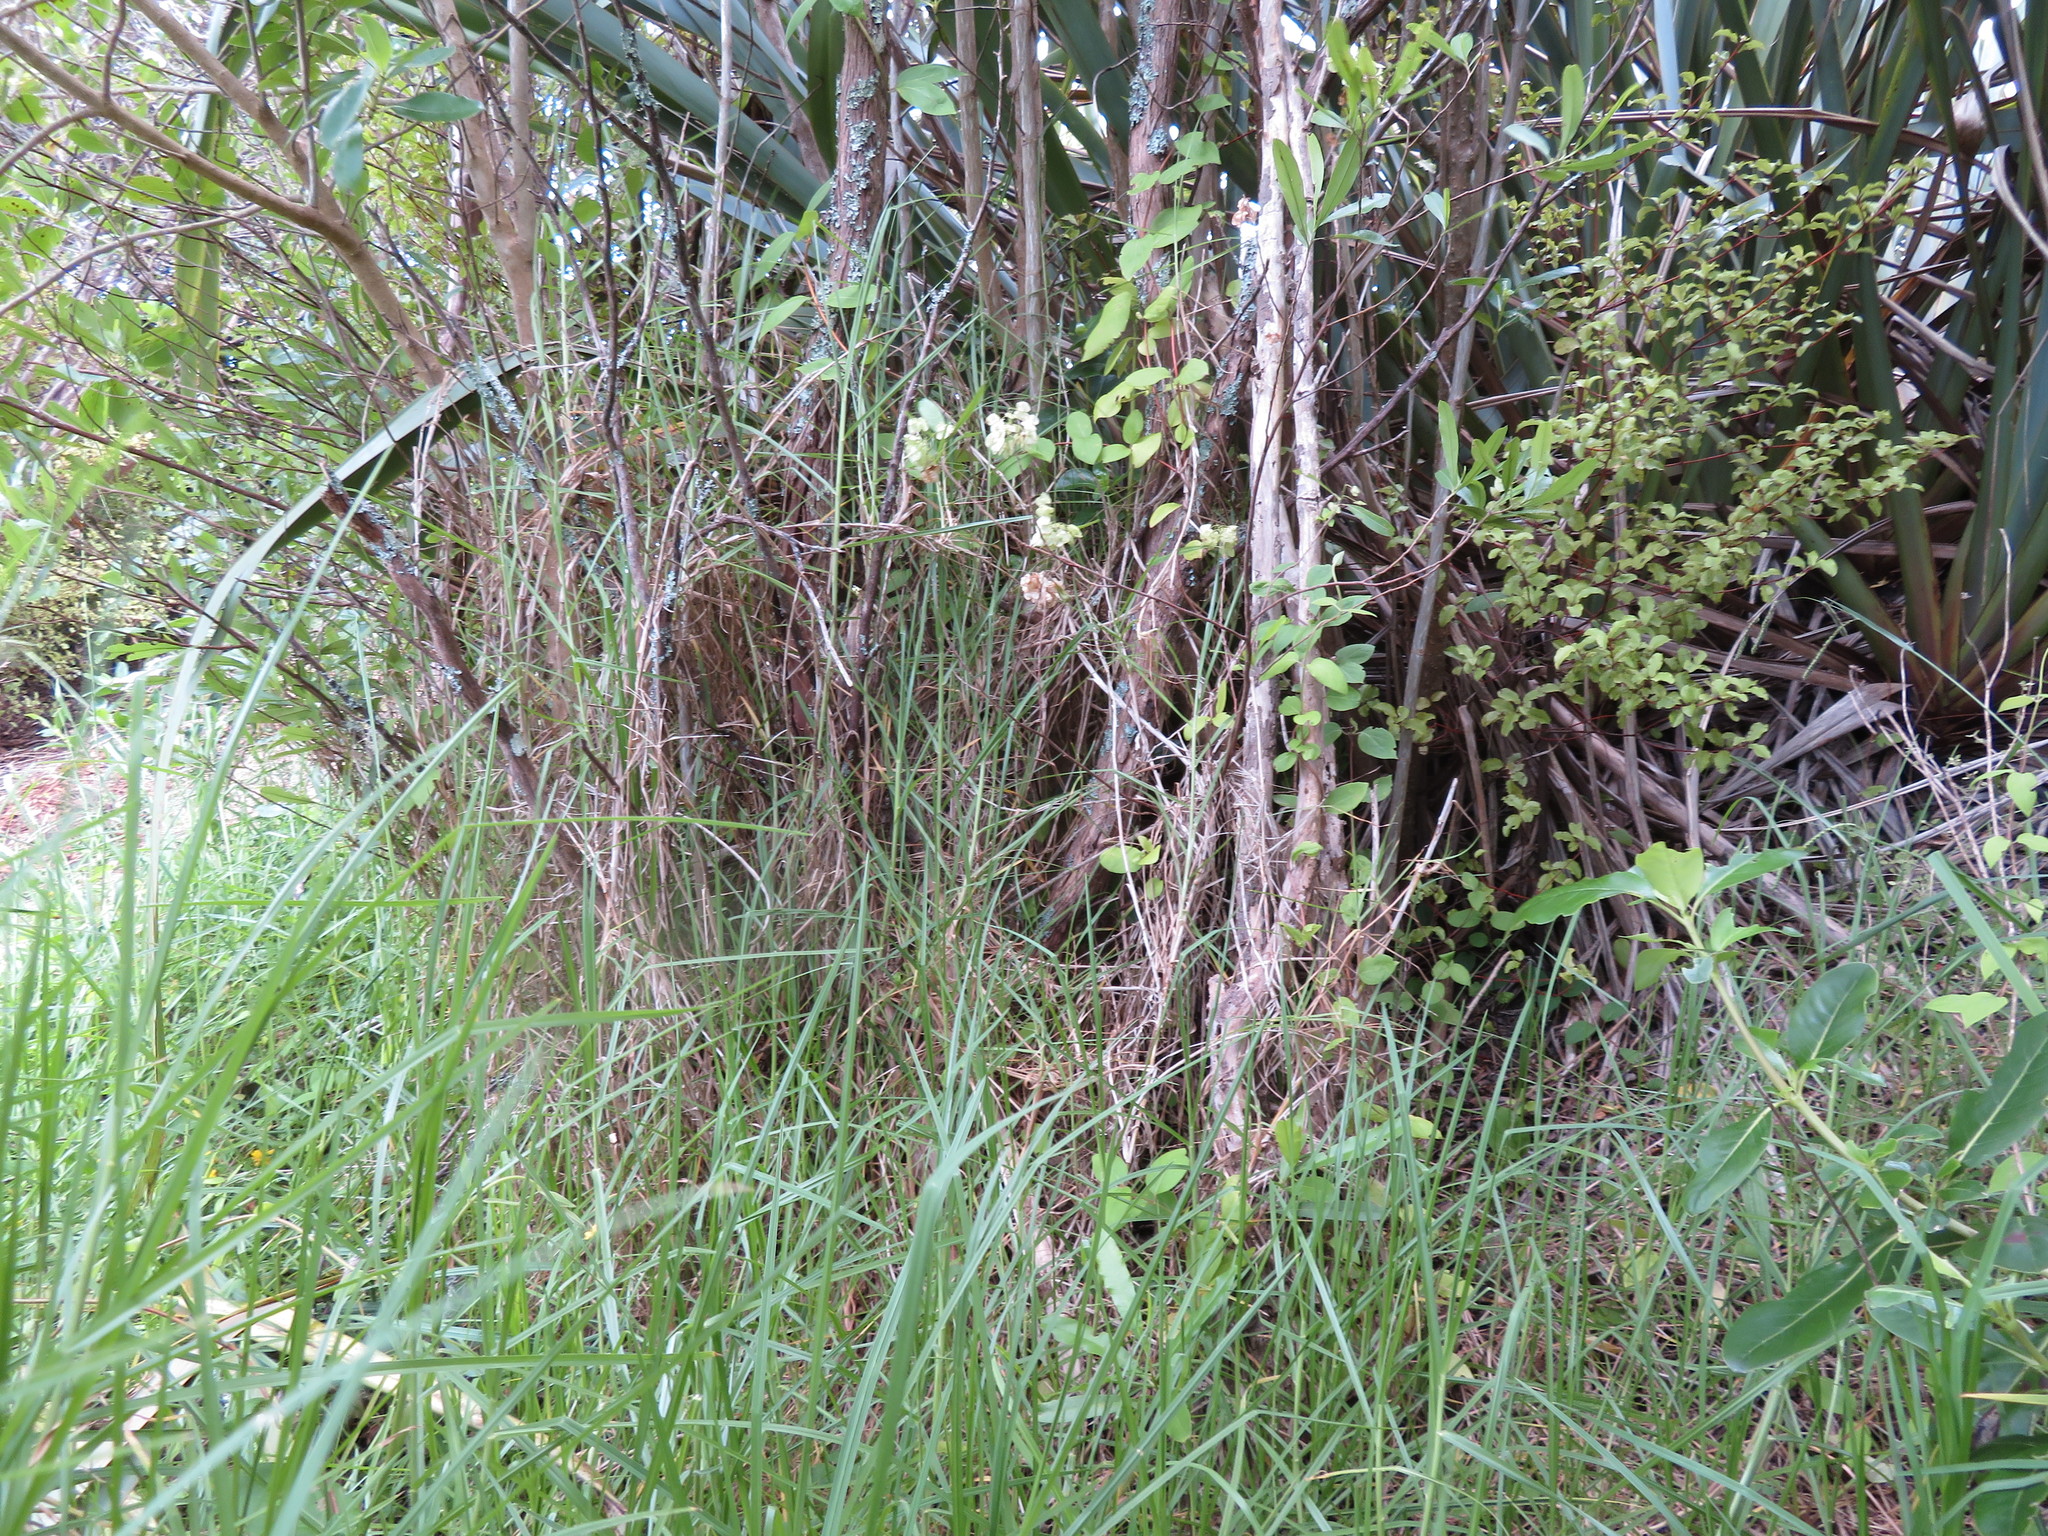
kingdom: Plantae
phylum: Tracheophyta
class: Liliopsida
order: Poales
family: Poaceae
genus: Cenchrus
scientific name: Cenchrus clandestinus
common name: Kikuyugrass
